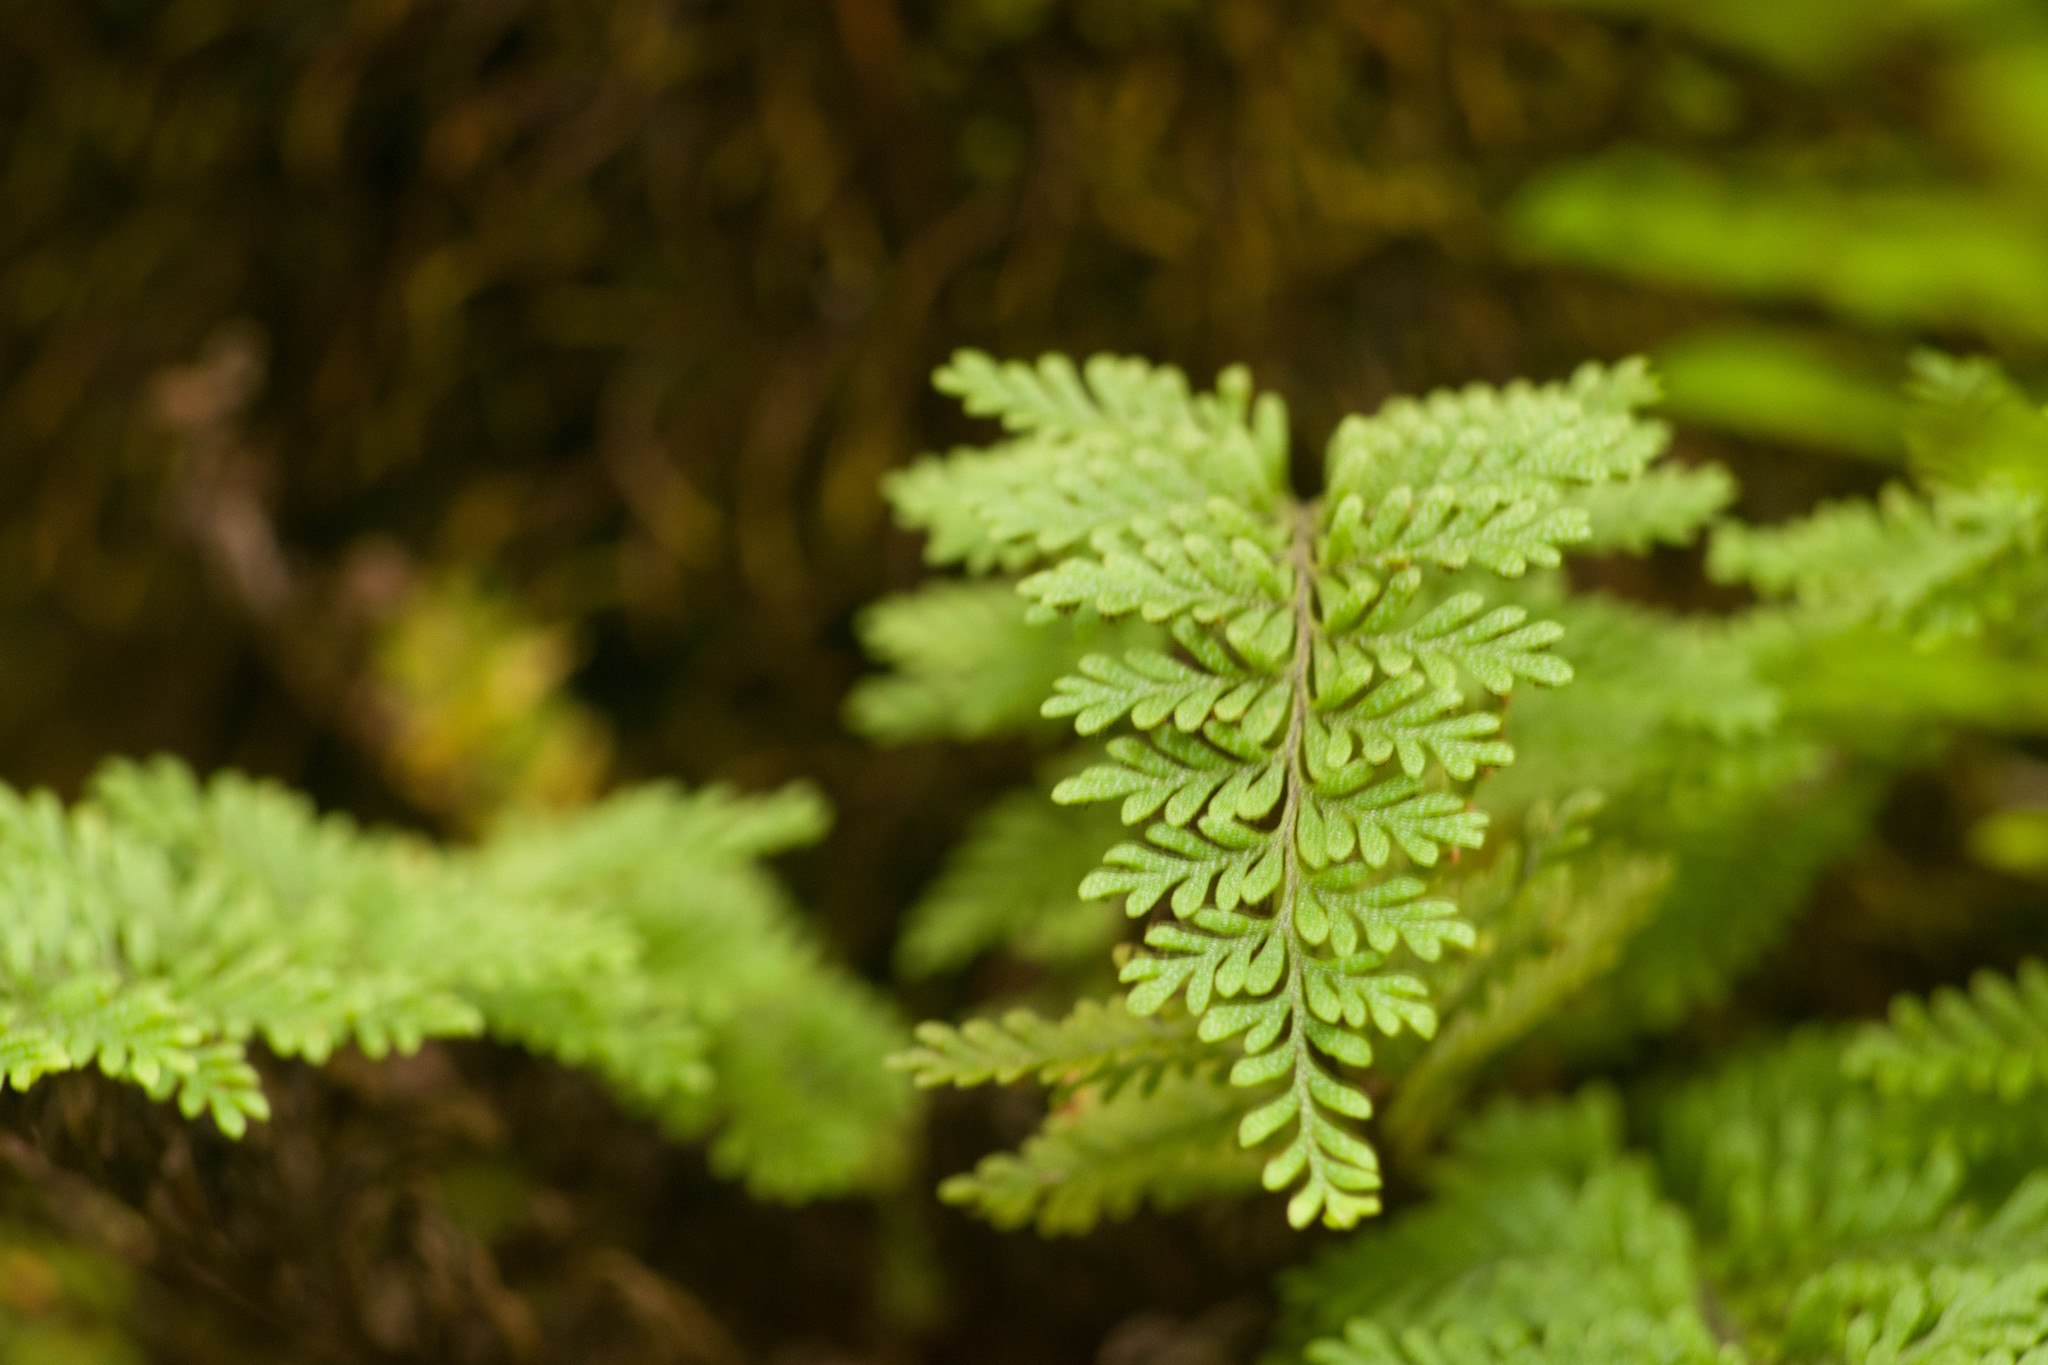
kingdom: Plantae
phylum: Tracheophyta
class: Polypodiopsida
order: Polypodiales
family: Polypodiaceae
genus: Adenophorus
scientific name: Adenophorus tamariscinus
